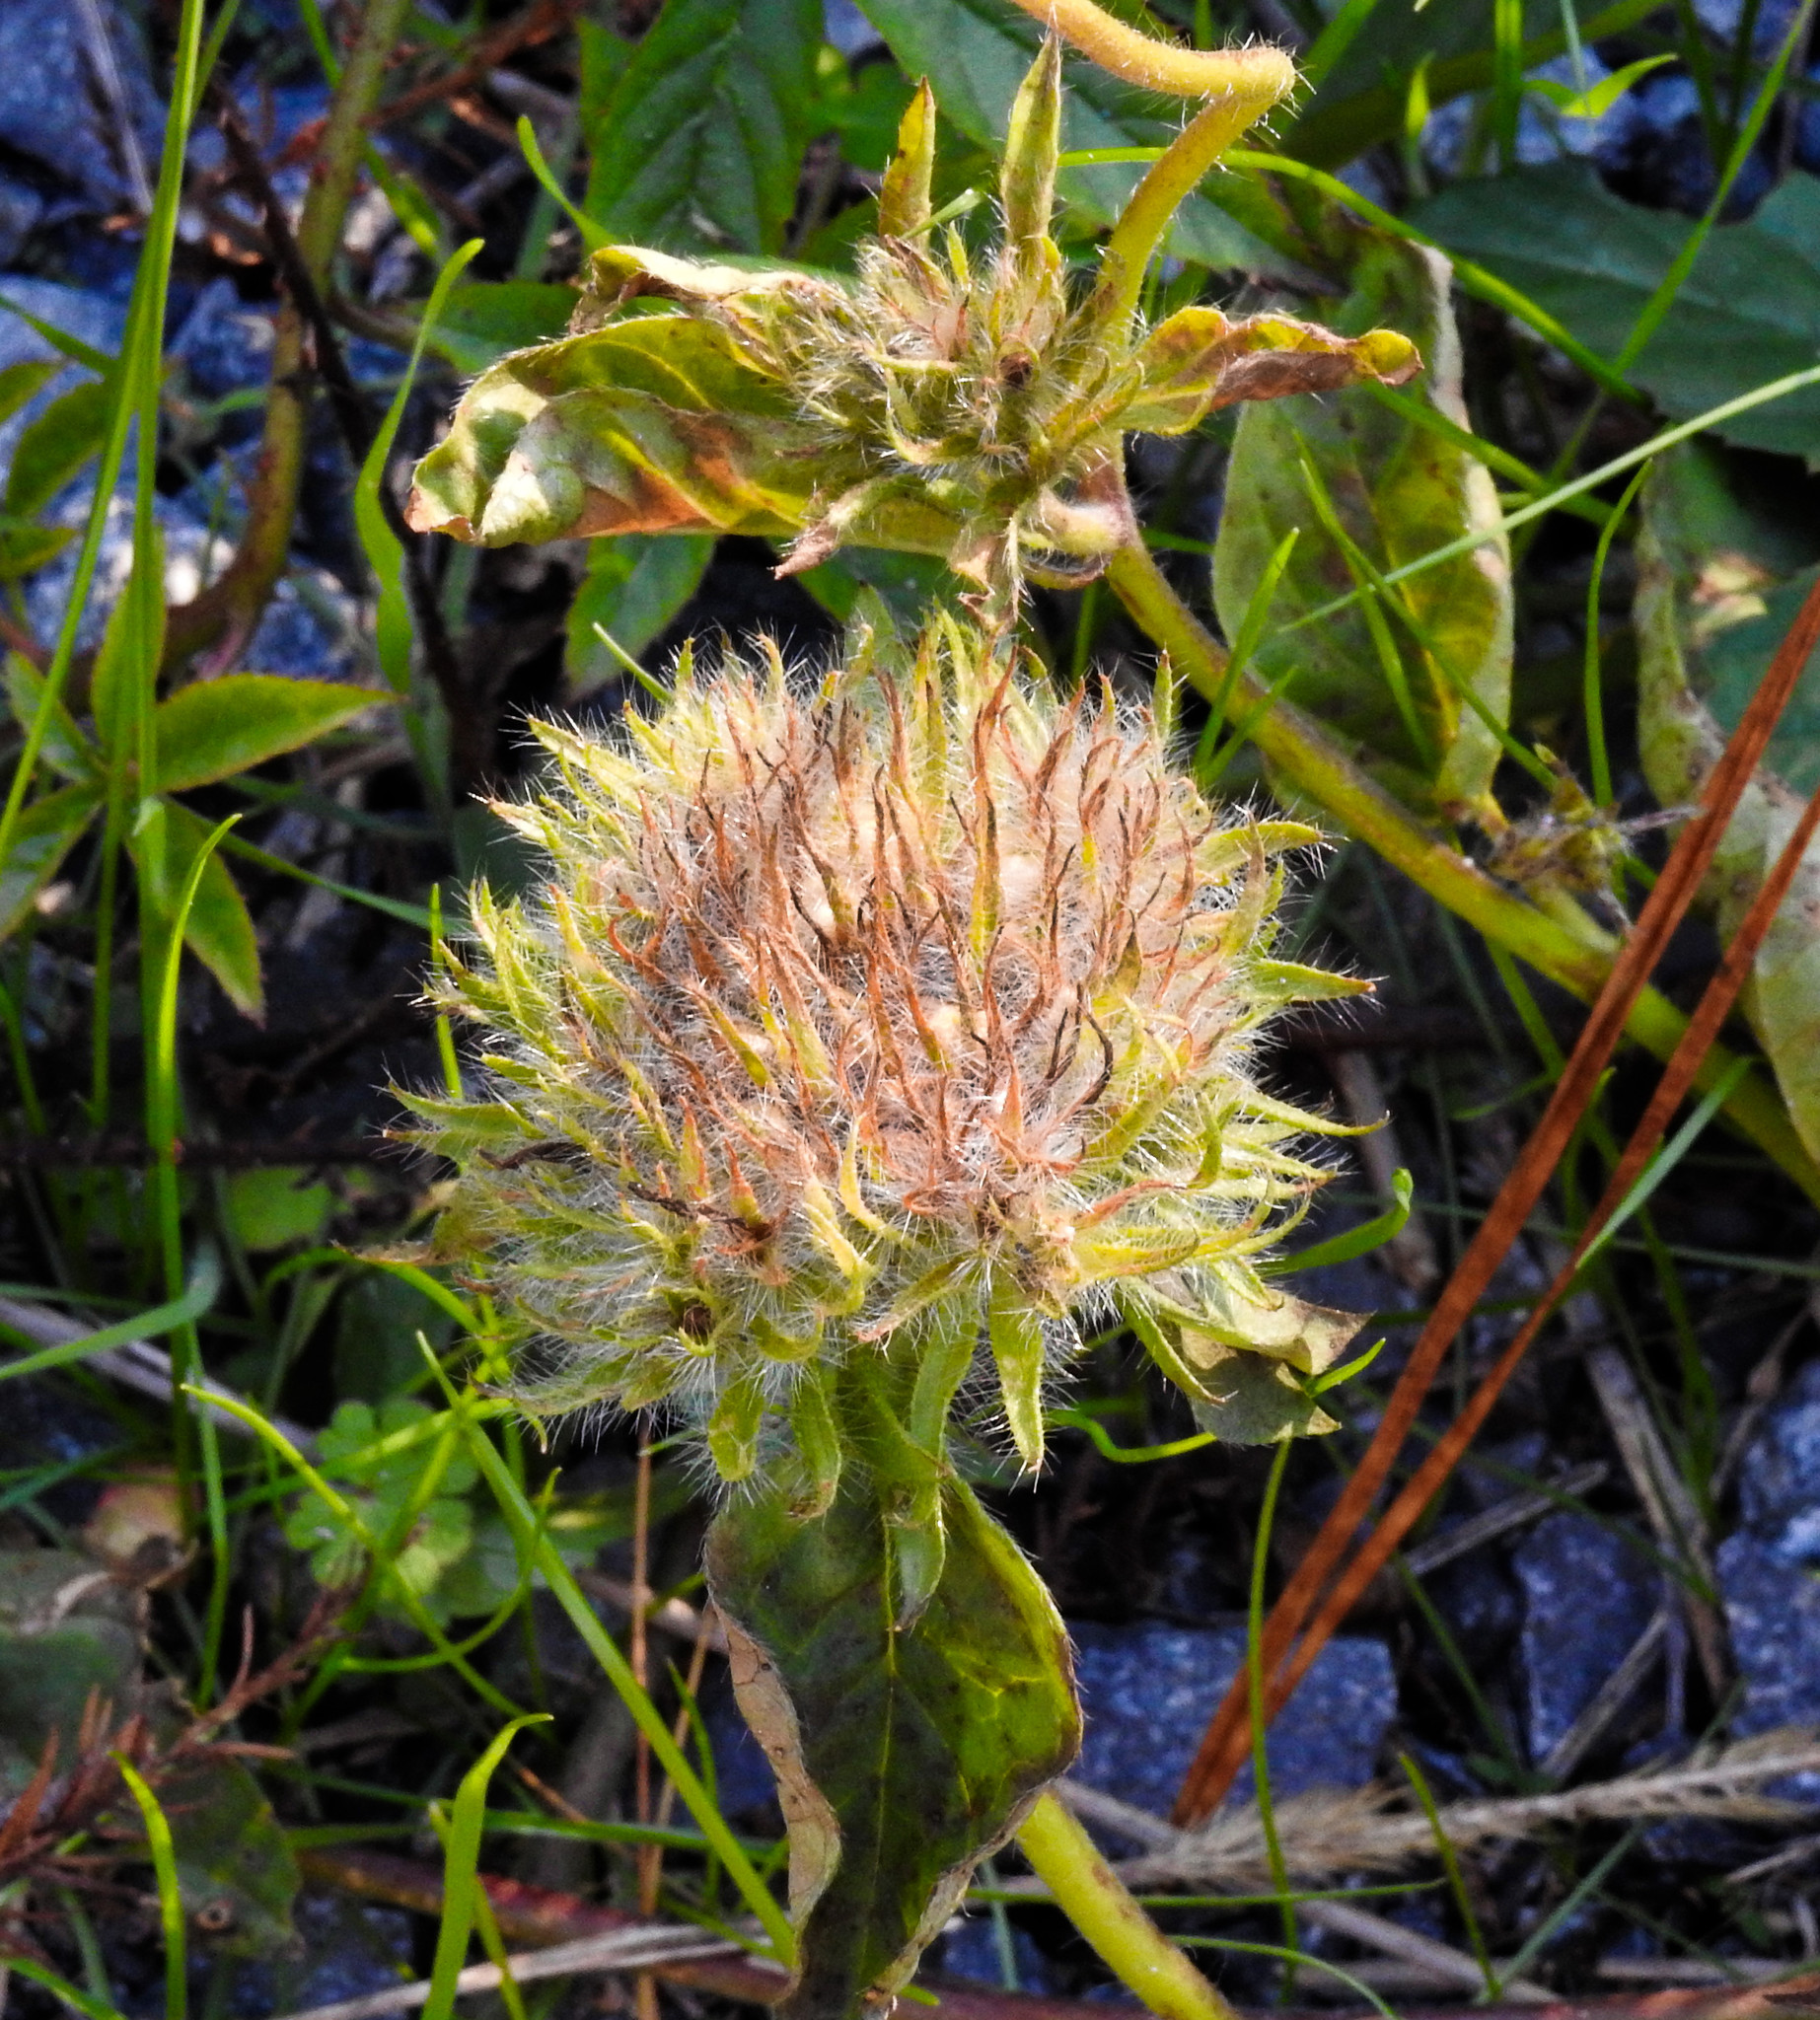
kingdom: Plantae
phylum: Tracheophyta
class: Magnoliopsida
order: Solanales
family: Convolvulaceae
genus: Jacquemontia
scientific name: Jacquemontia tamnifolia
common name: Hairy clustervine
